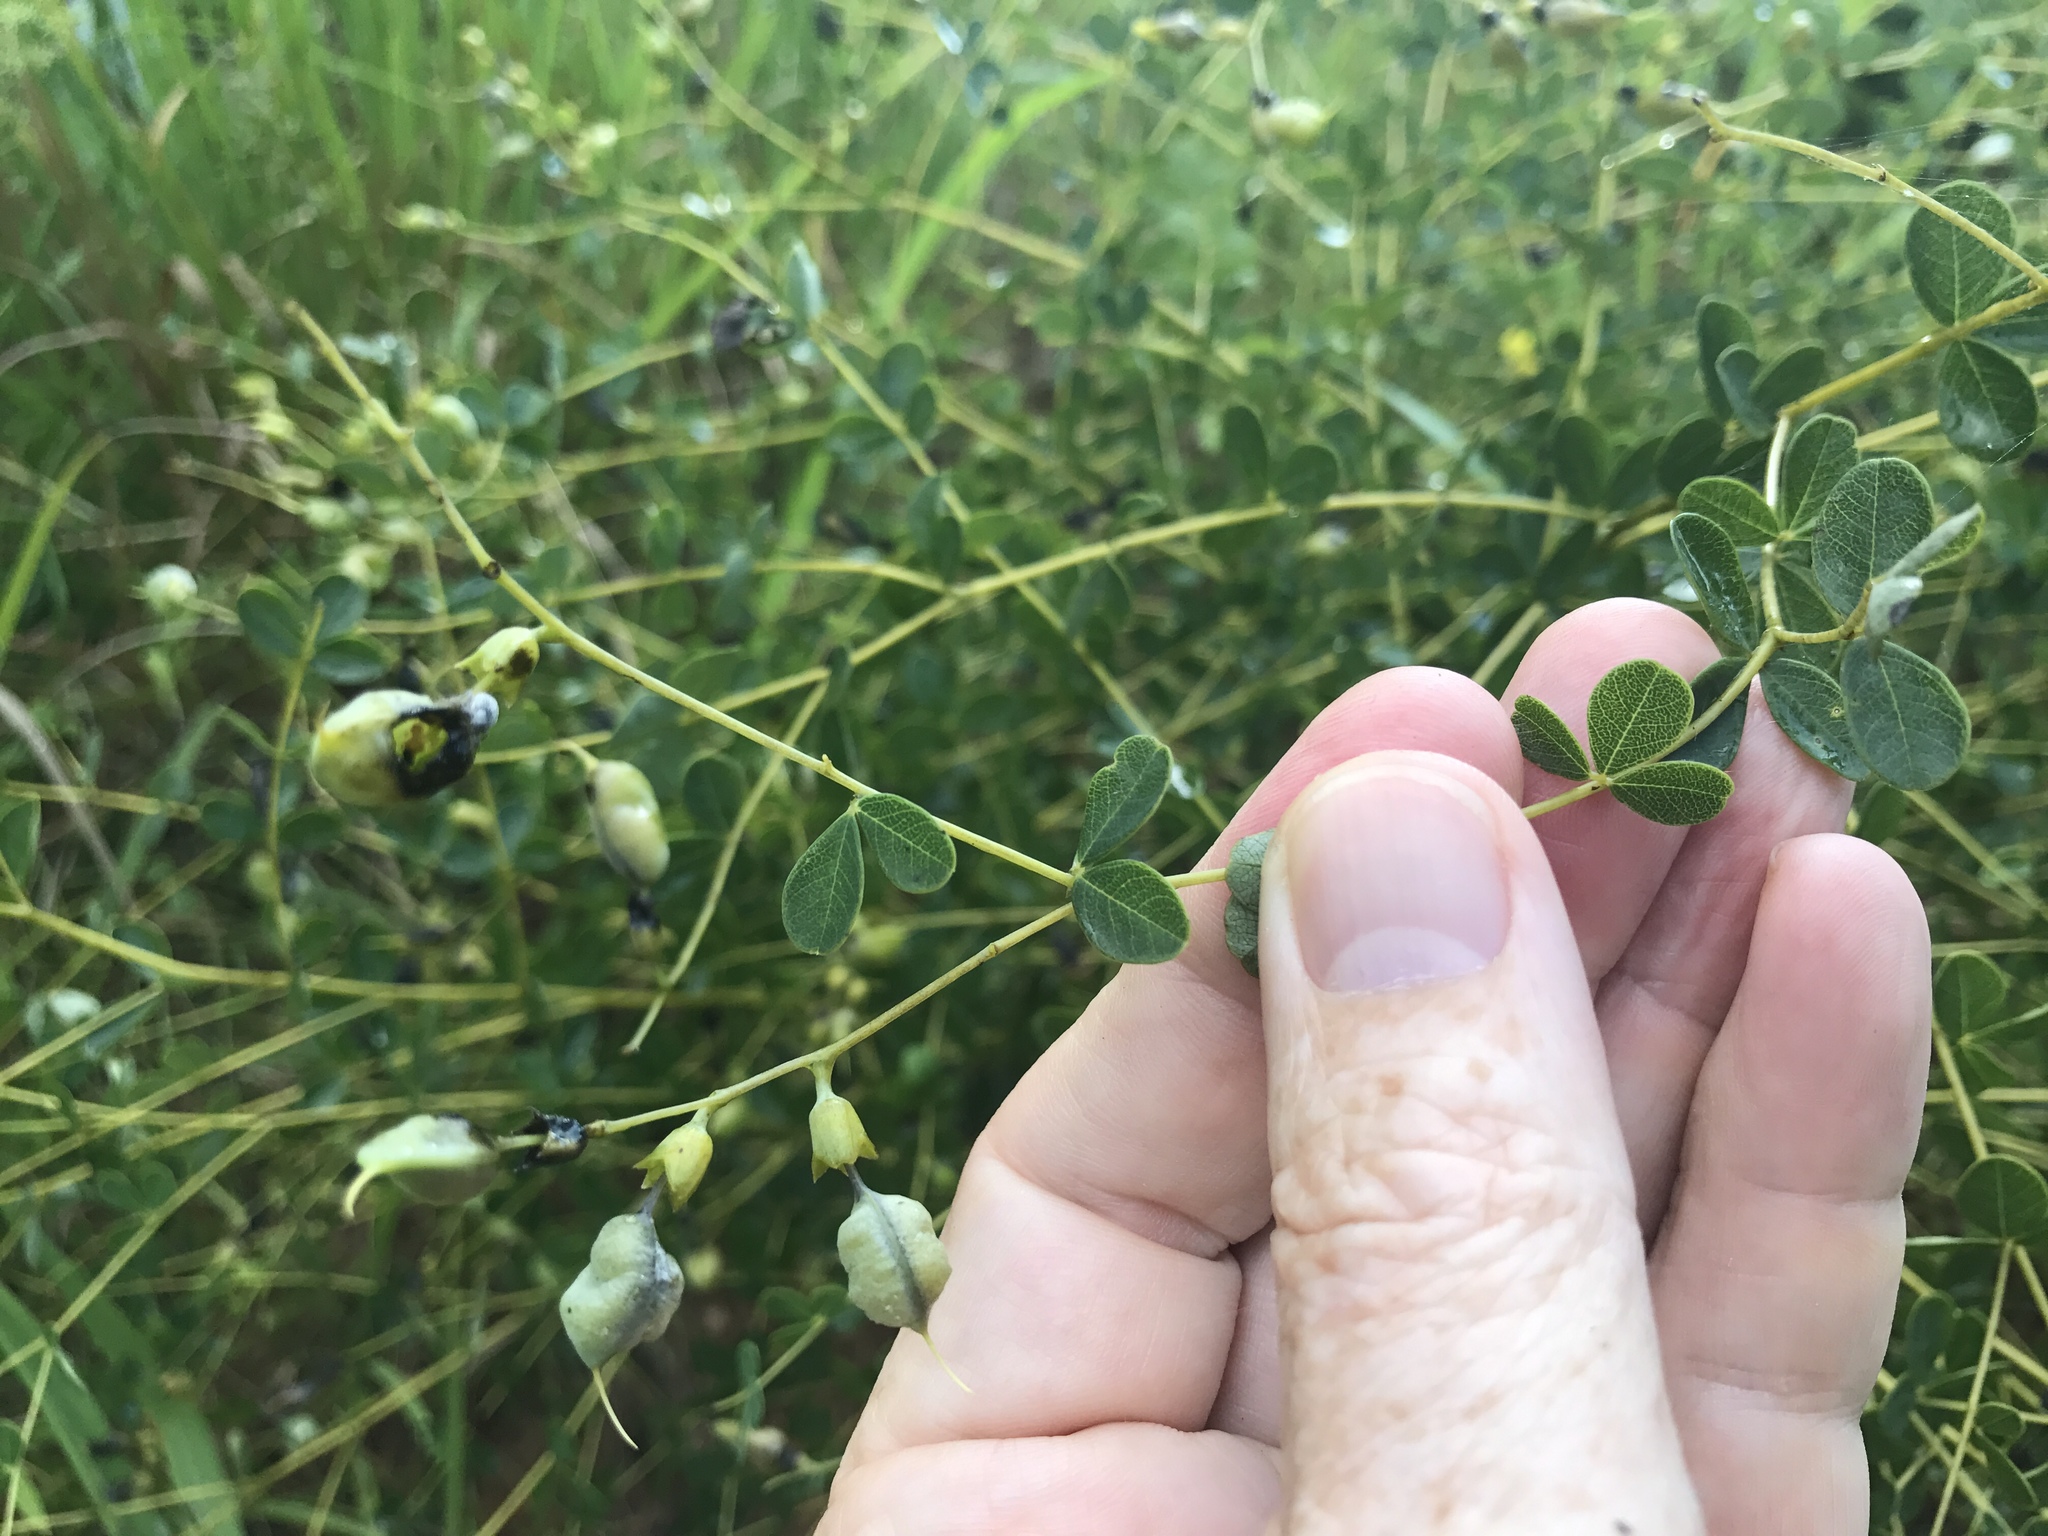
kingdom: Plantae
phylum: Tracheophyta
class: Magnoliopsida
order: Fabales
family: Fabaceae
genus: Baptisia
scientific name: Baptisia tinctoria
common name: Wild indigo
